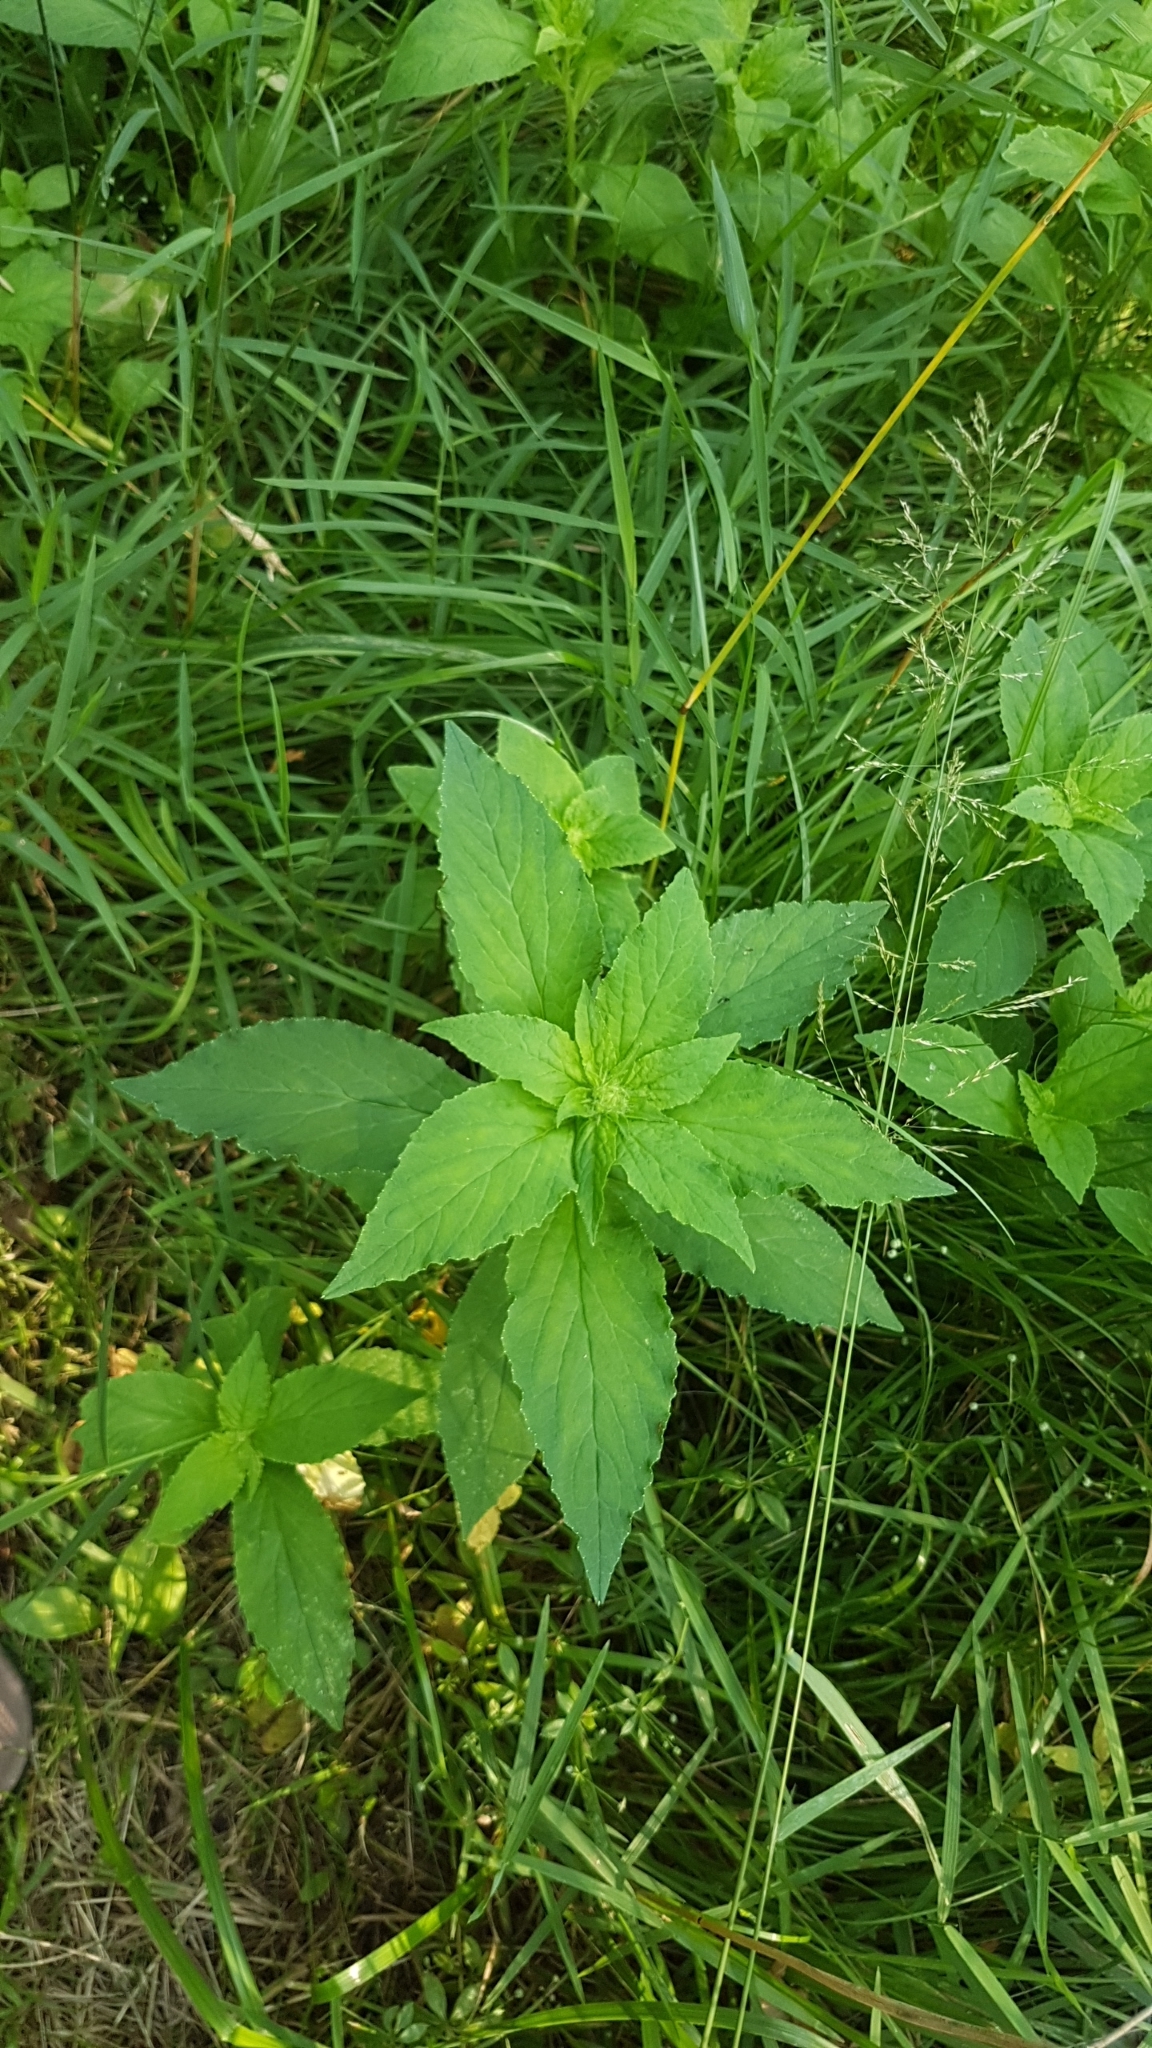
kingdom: Plantae
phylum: Tracheophyta
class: Magnoliopsida
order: Asterales
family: Campanulaceae
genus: Lobelia
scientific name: Lobelia siphilitica
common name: Great lobelia
